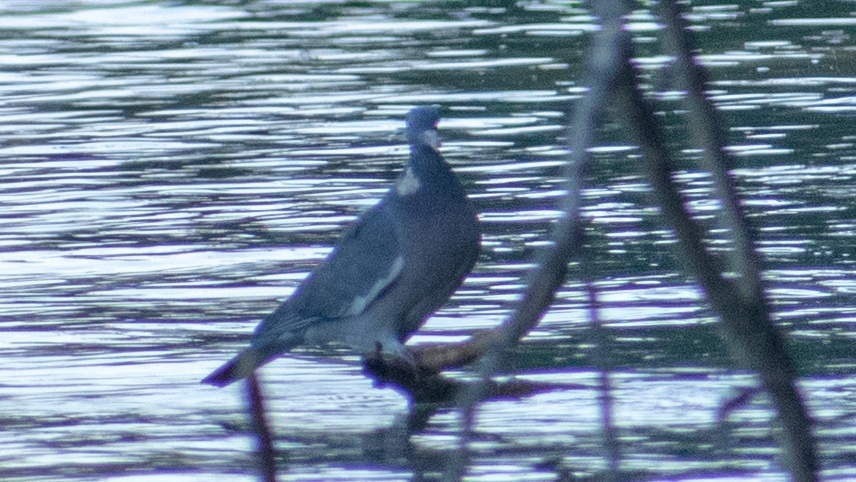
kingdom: Animalia
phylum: Chordata
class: Aves
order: Columbiformes
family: Columbidae
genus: Columba
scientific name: Columba palumbus
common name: Common wood pigeon
